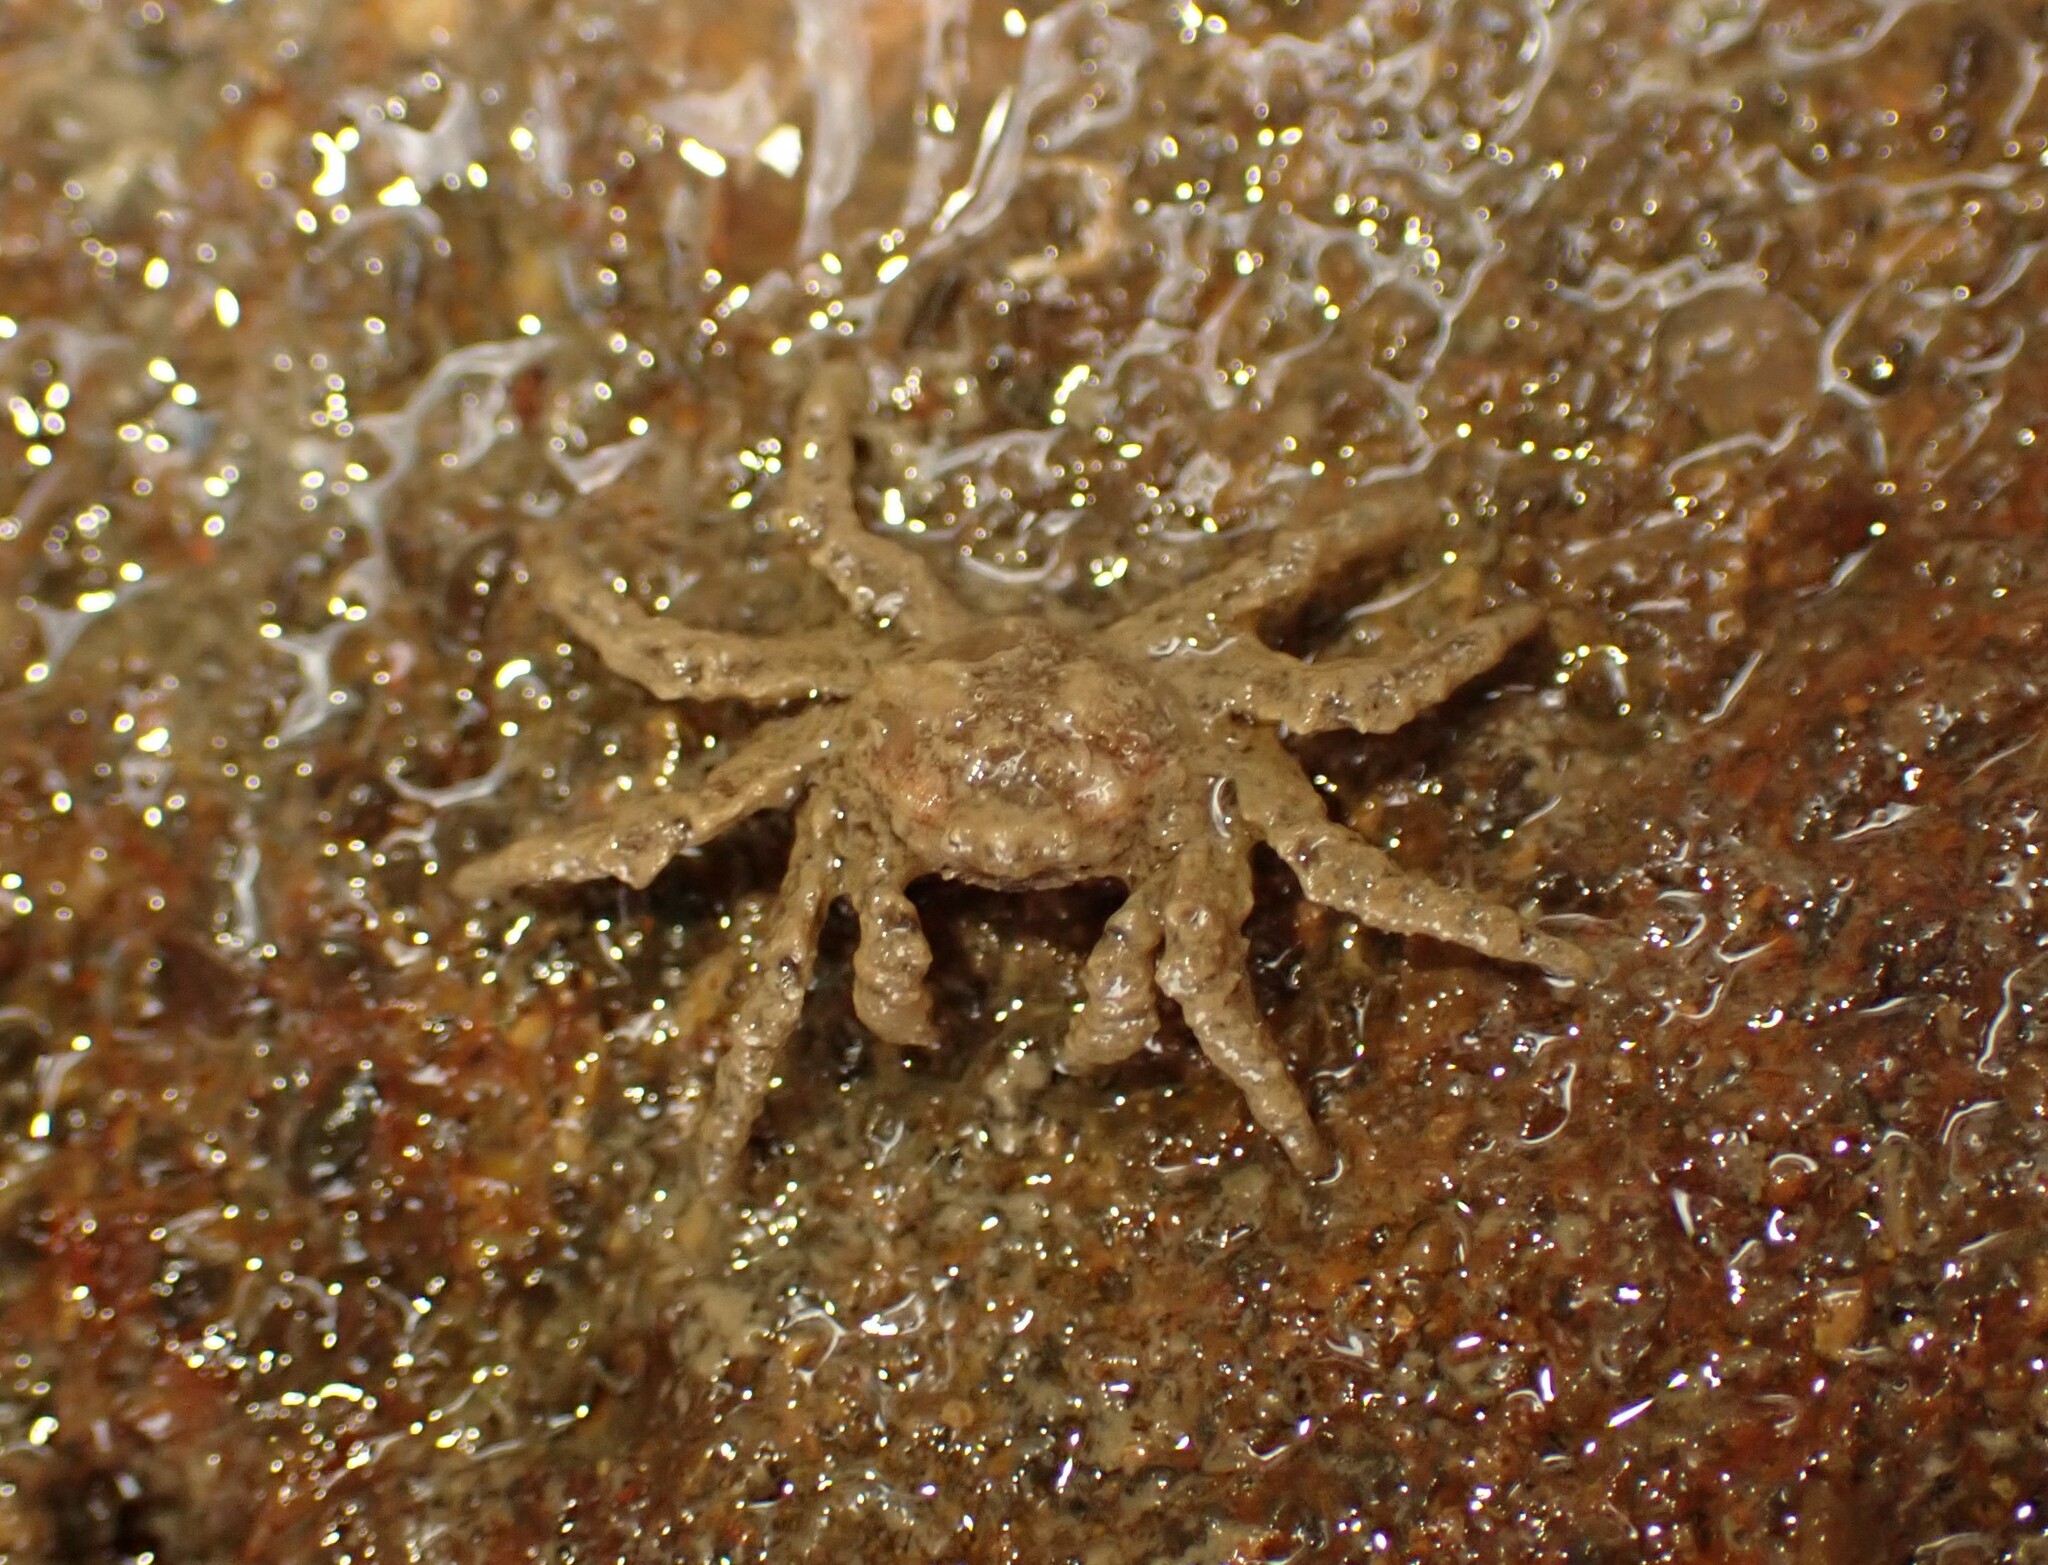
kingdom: Animalia
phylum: Arthropoda
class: Malacostraca
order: Decapoda
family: Hymenosomatidae
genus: Neohymenicus
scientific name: Neohymenicus pubescens
